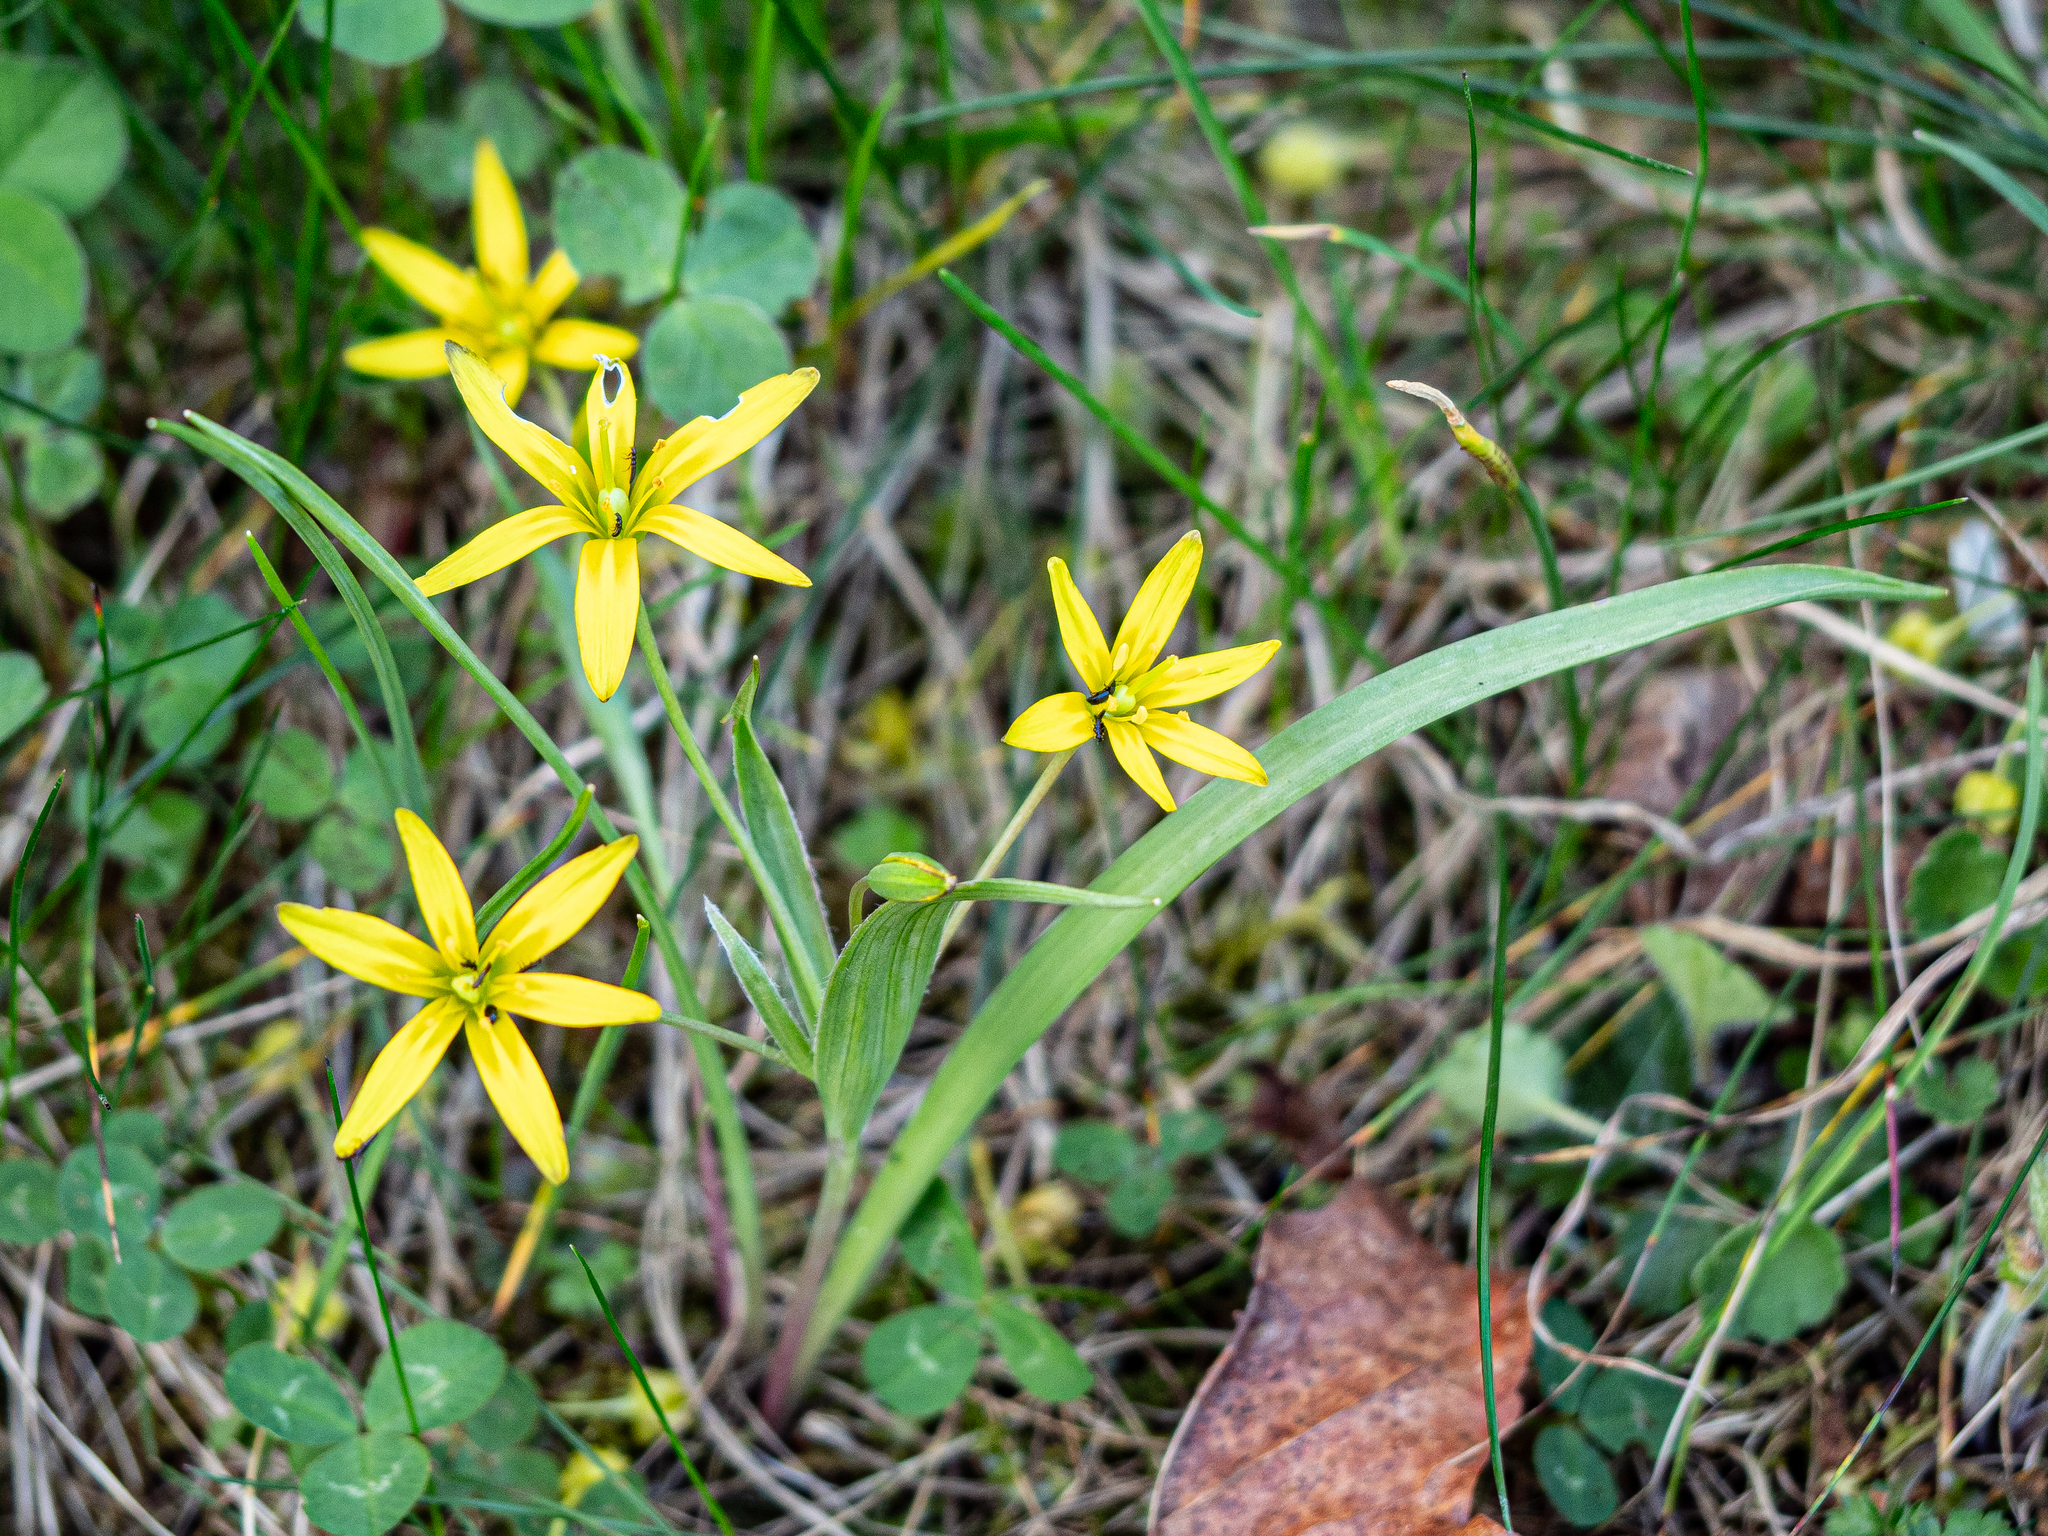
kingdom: Plantae
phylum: Tracheophyta
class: Liliopsida
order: Liliales
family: Liliaceae
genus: Gagea
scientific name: Gagea lutea
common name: Yellow star-of-bethlehem
